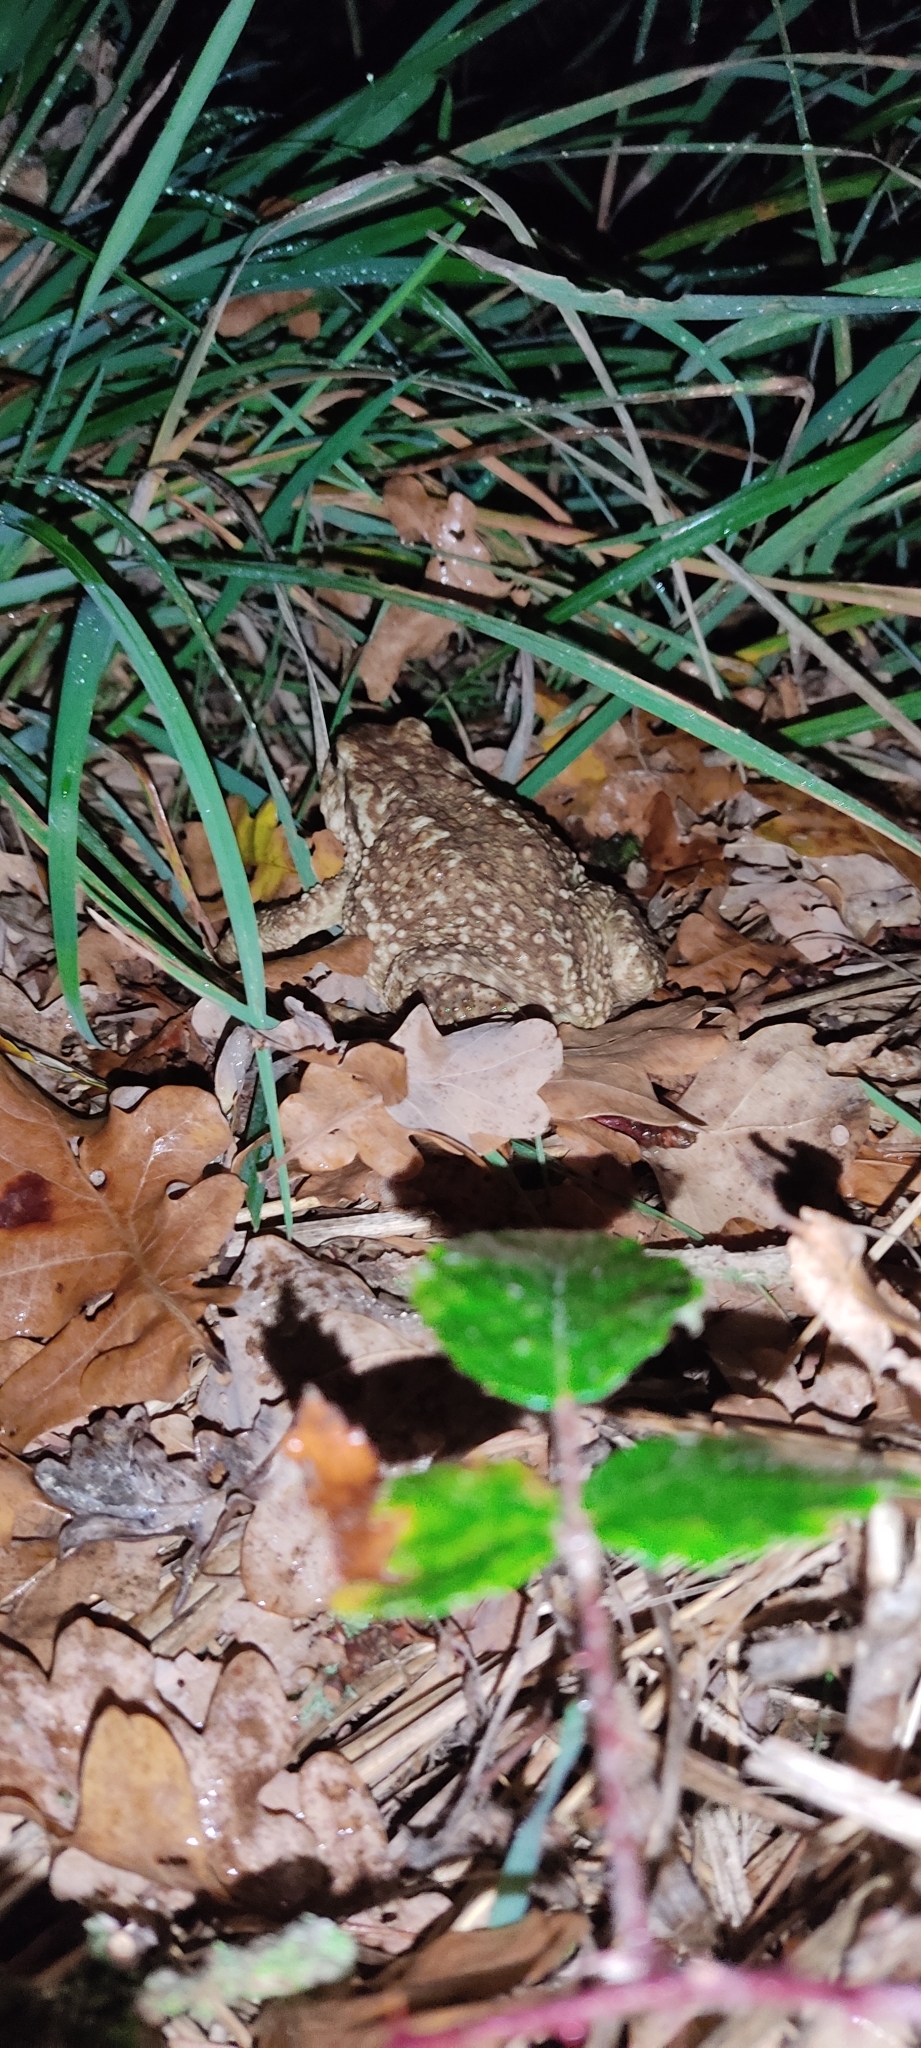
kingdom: Animalia
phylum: Chordata
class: Amphibia
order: Anura
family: Bufonidae
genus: Bufo
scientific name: Bufo spinosus
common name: Western common toad
